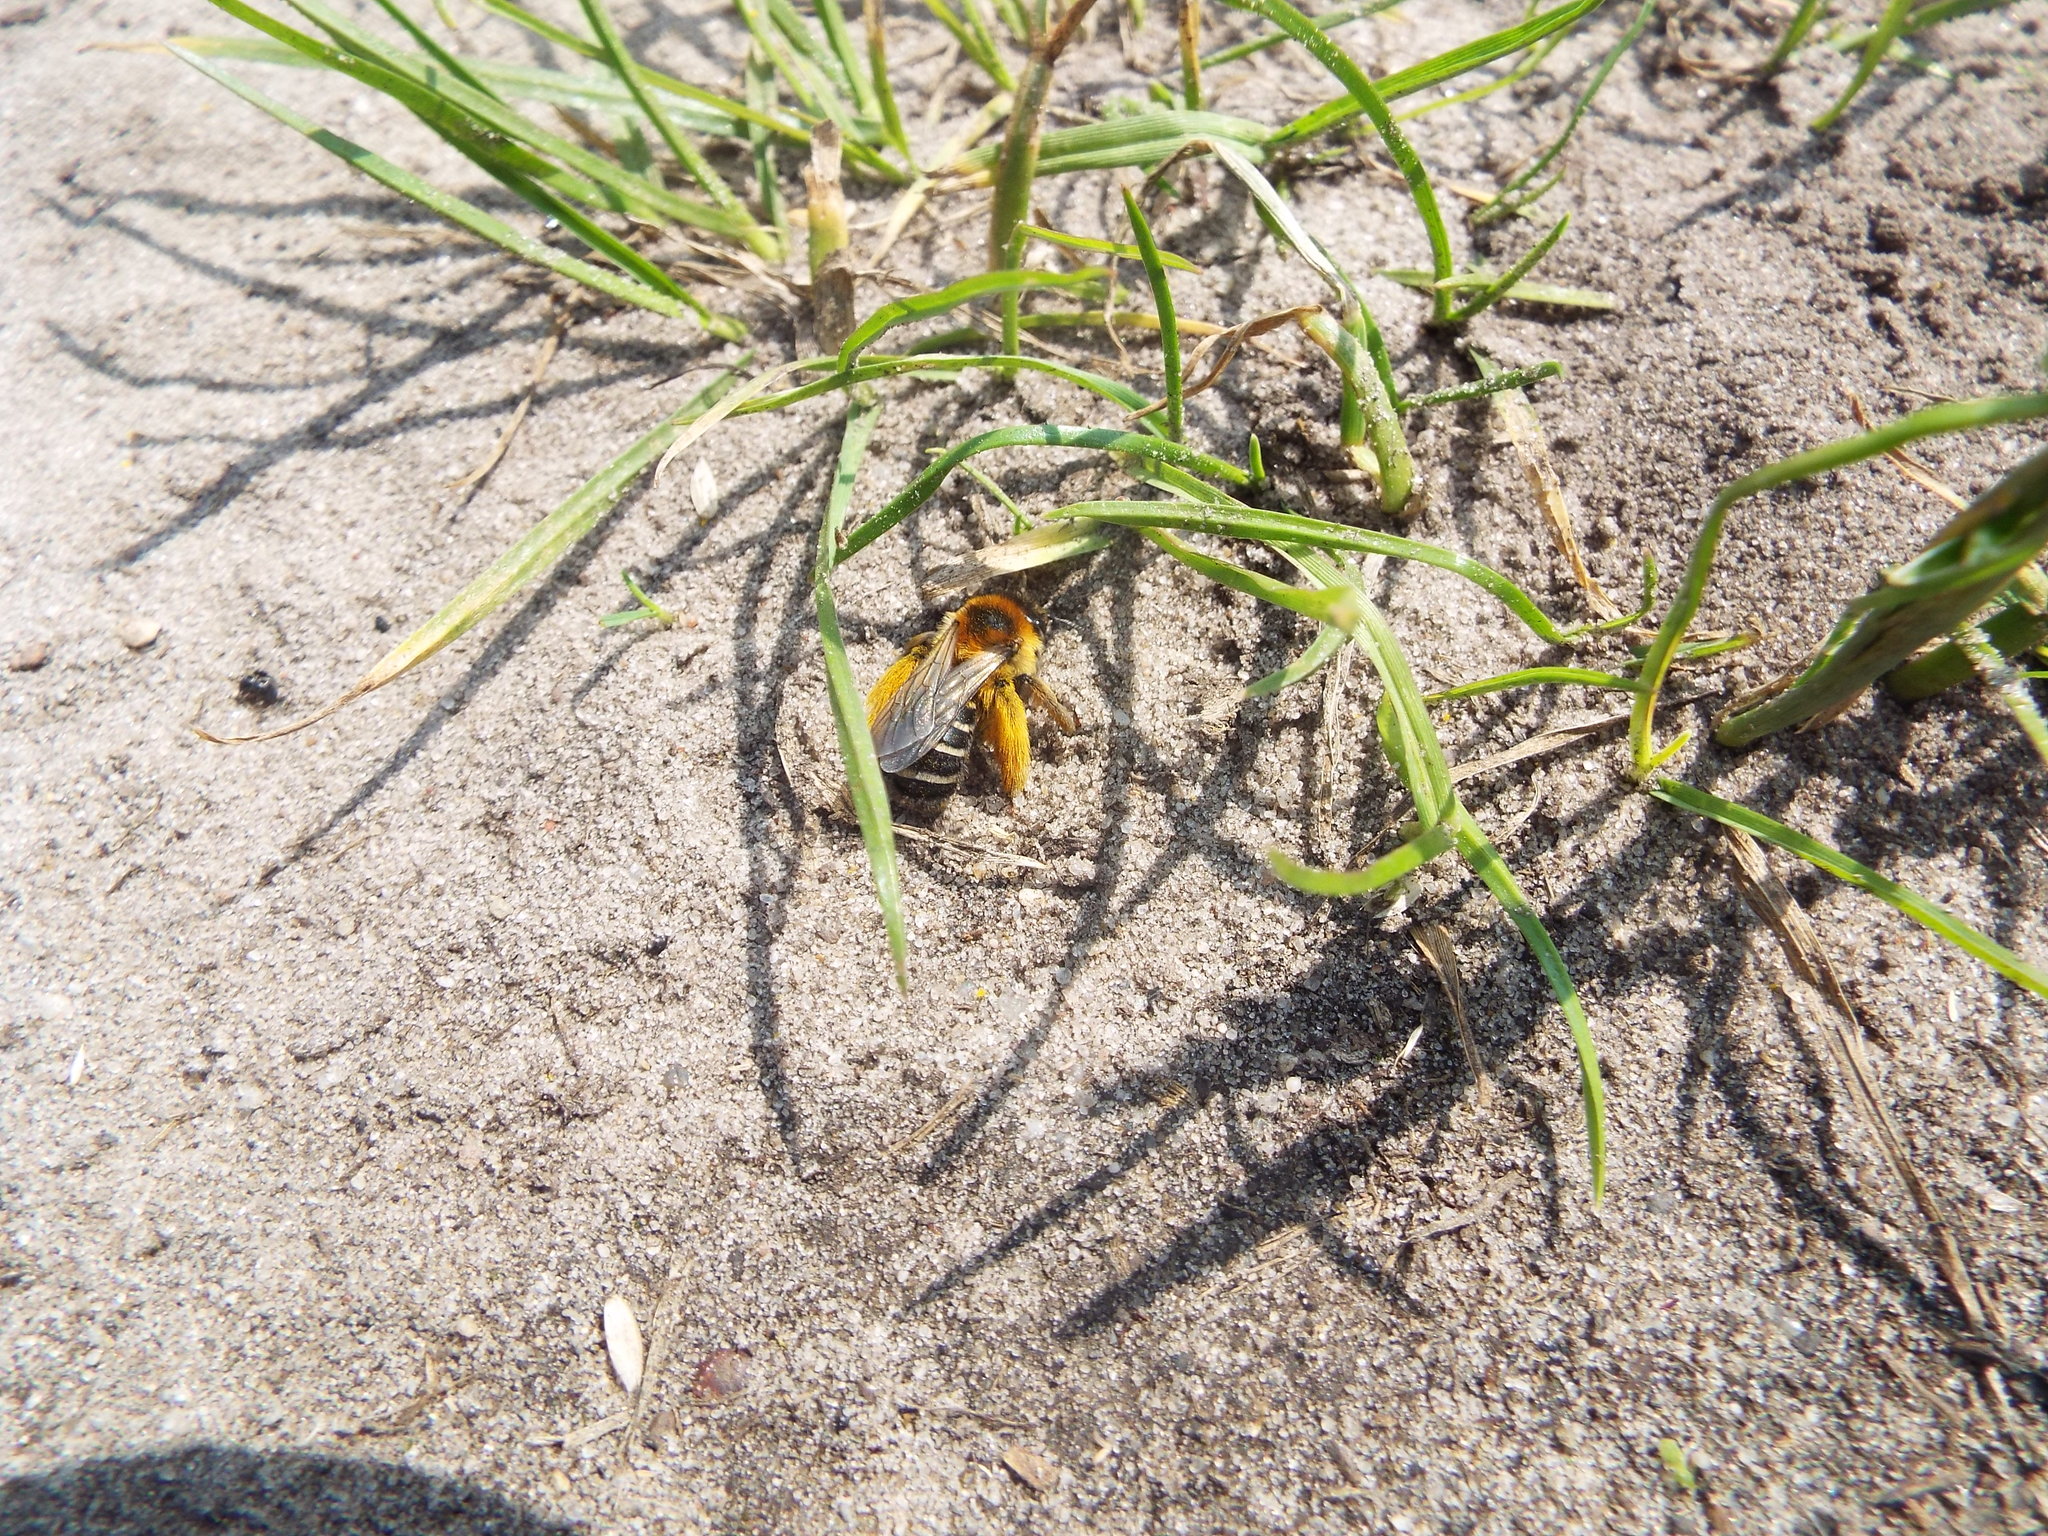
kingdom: Animalia
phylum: Arthropoda
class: Insecta
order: Hymenoptera
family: Melittidae
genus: Dasypoda
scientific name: Dasypoda hirtipes
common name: Pantaloon bee
